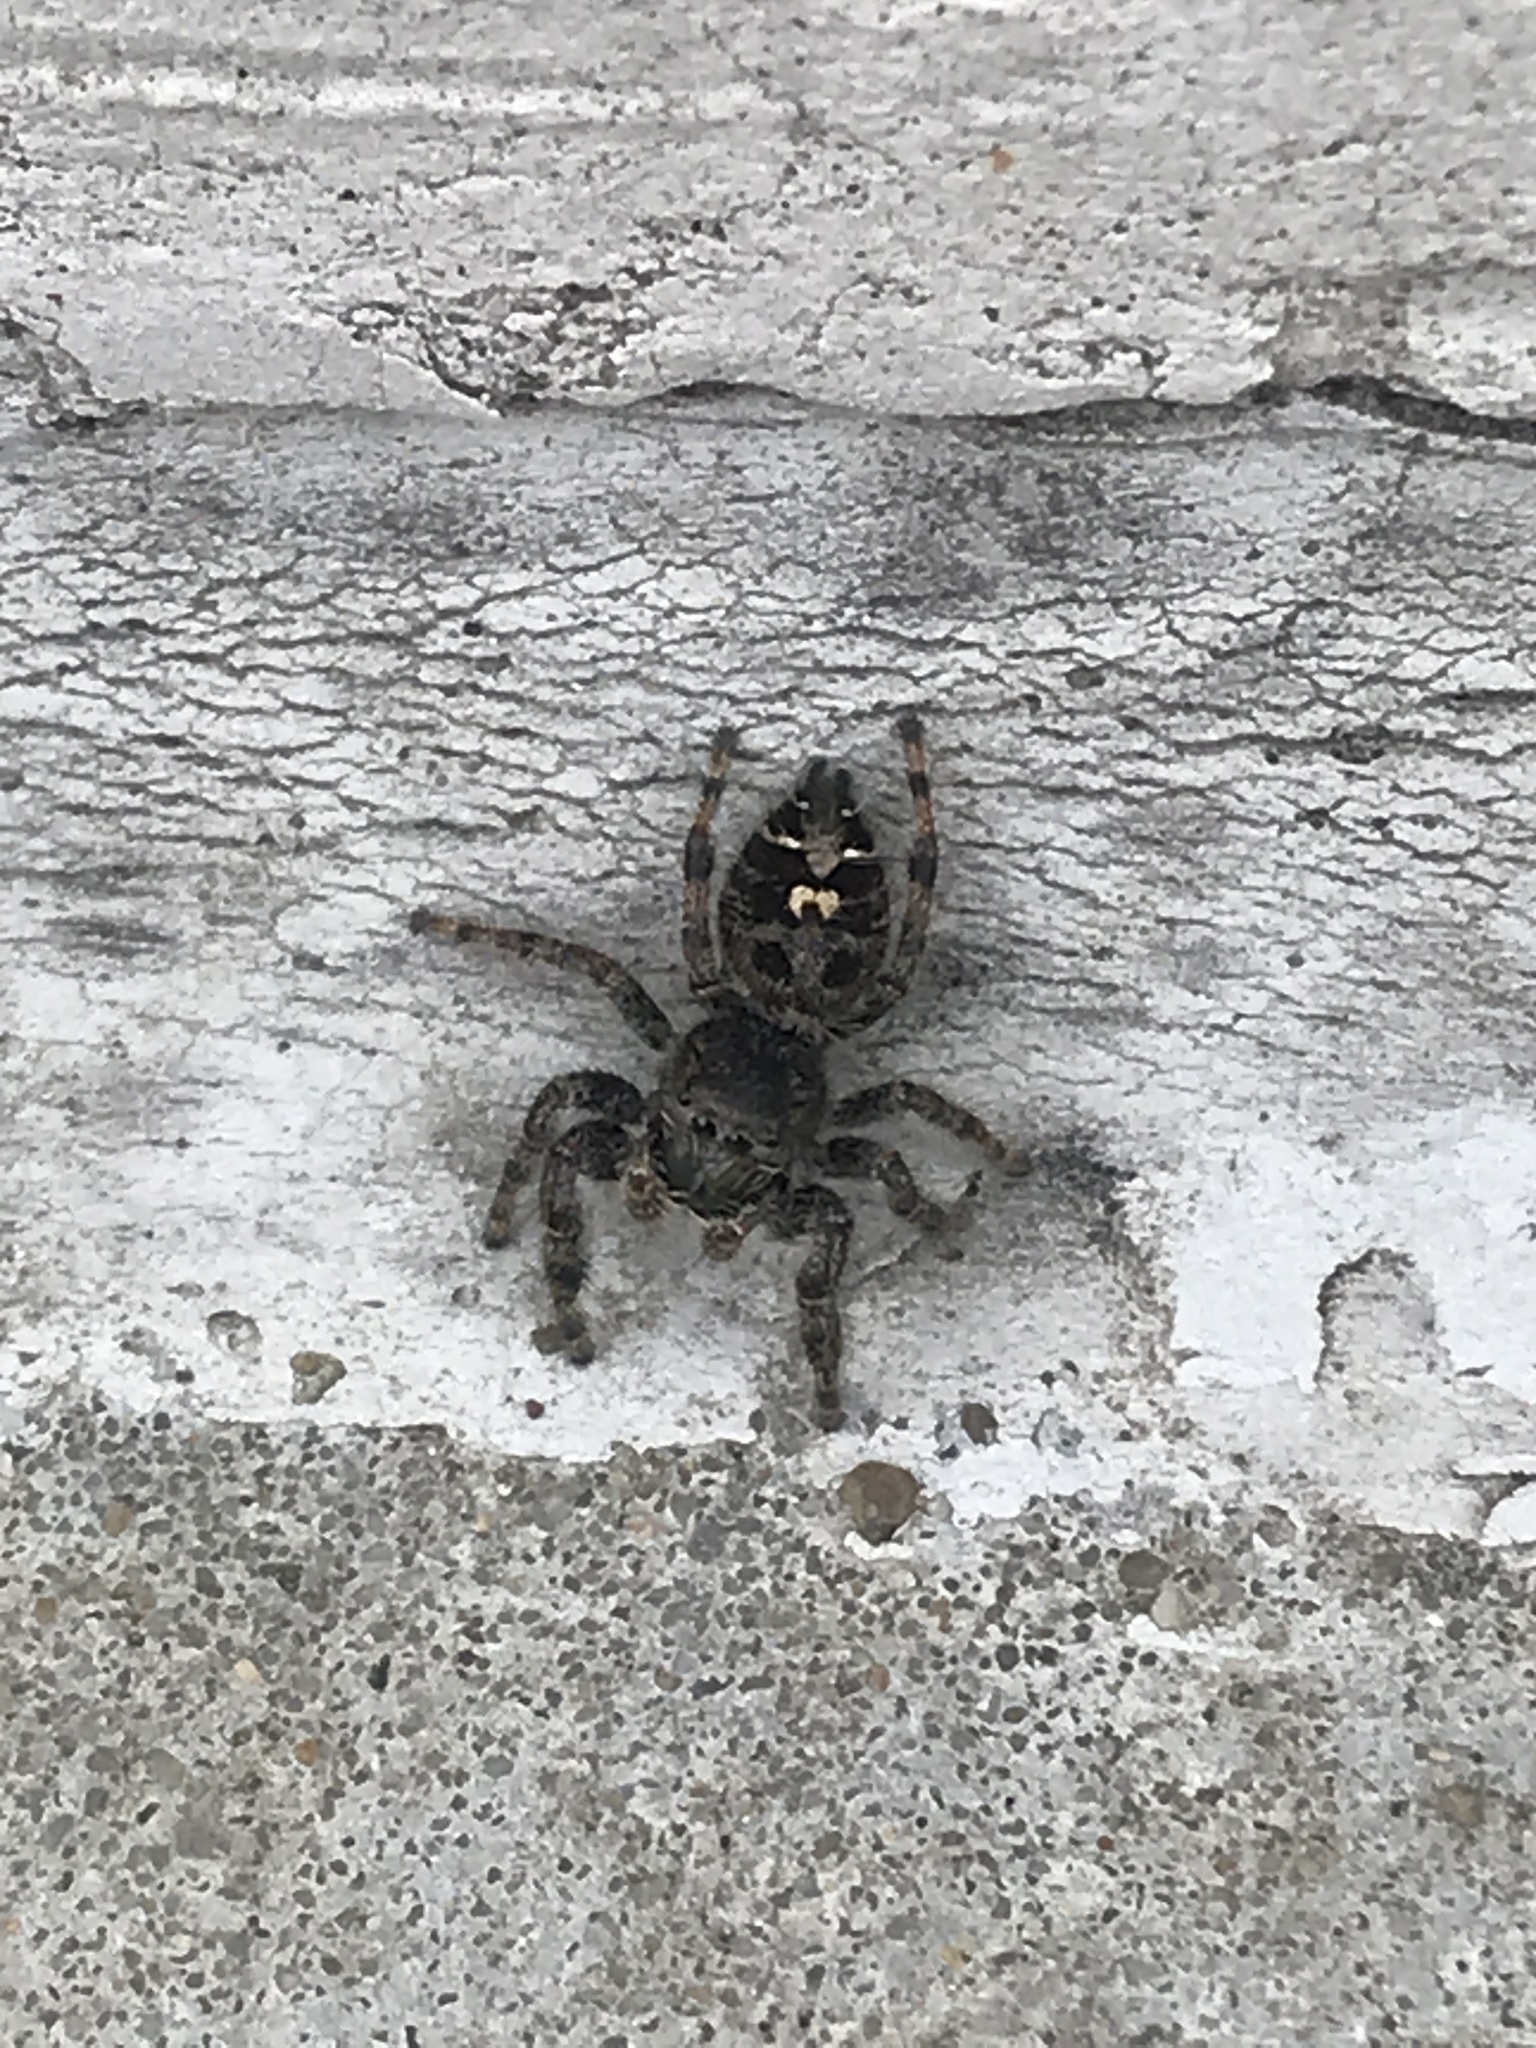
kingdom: Animalia
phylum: Arthropoda
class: Arachnida
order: Araneae
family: Salticidae
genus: Phidippus
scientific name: Phidippus audax
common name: Bold jumper
